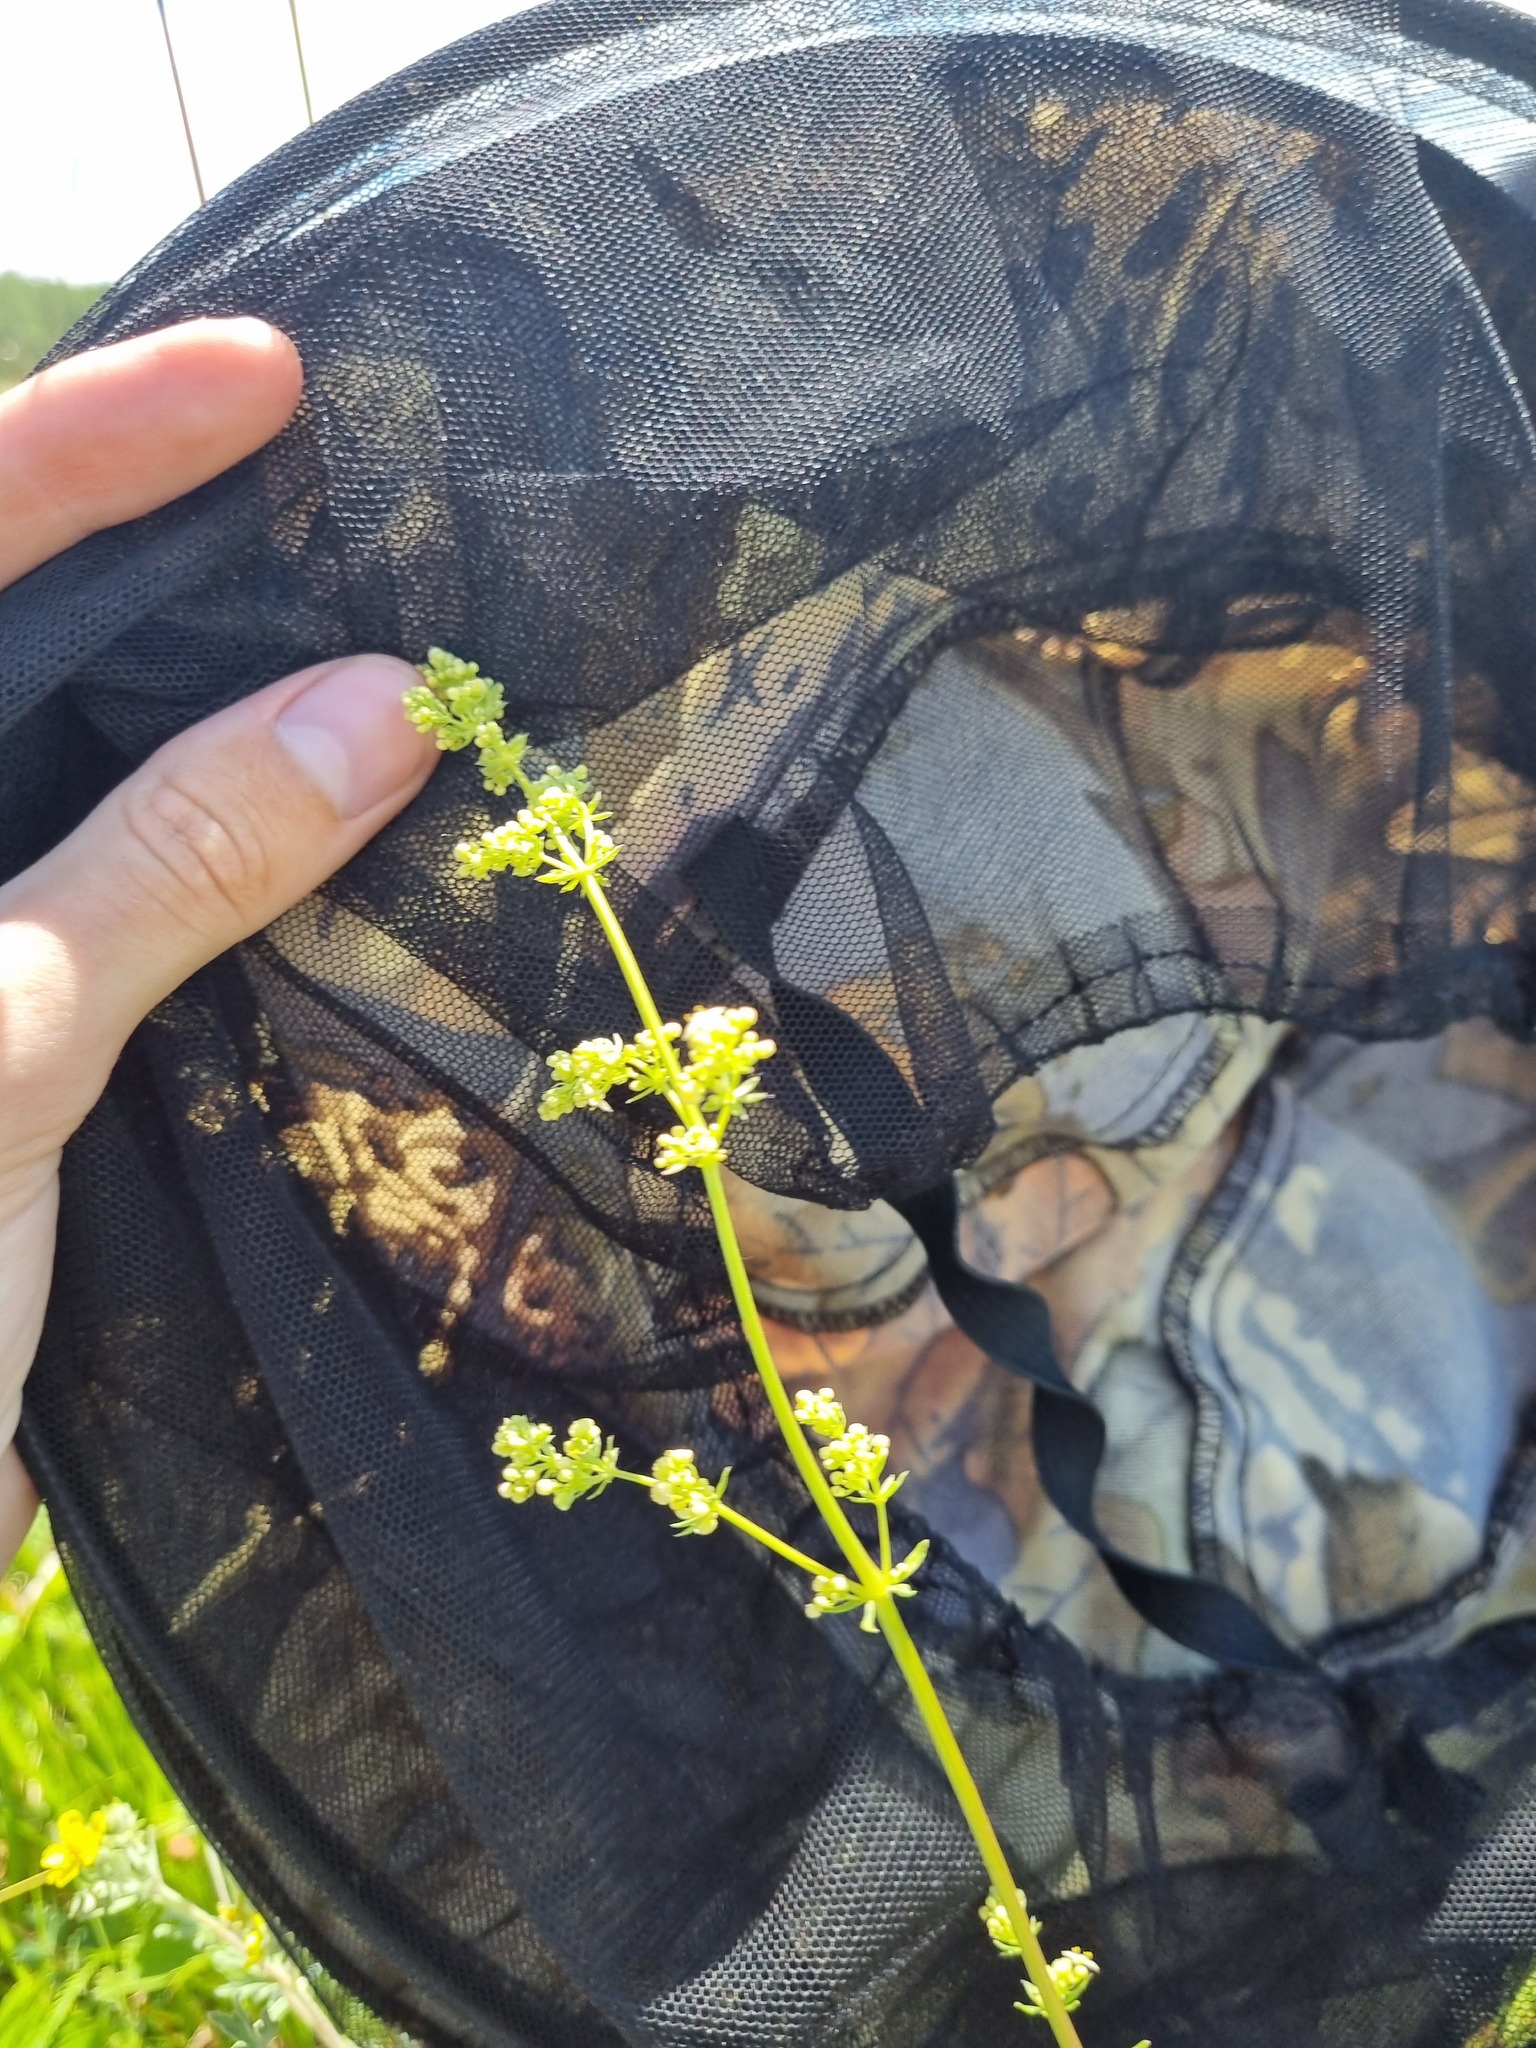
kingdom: Plantae
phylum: Tracheophyta
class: Magnoliopsida
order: Gentianales
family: Rubiaceae
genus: Galium
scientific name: Galium mollugo
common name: Hedge bedstraw
